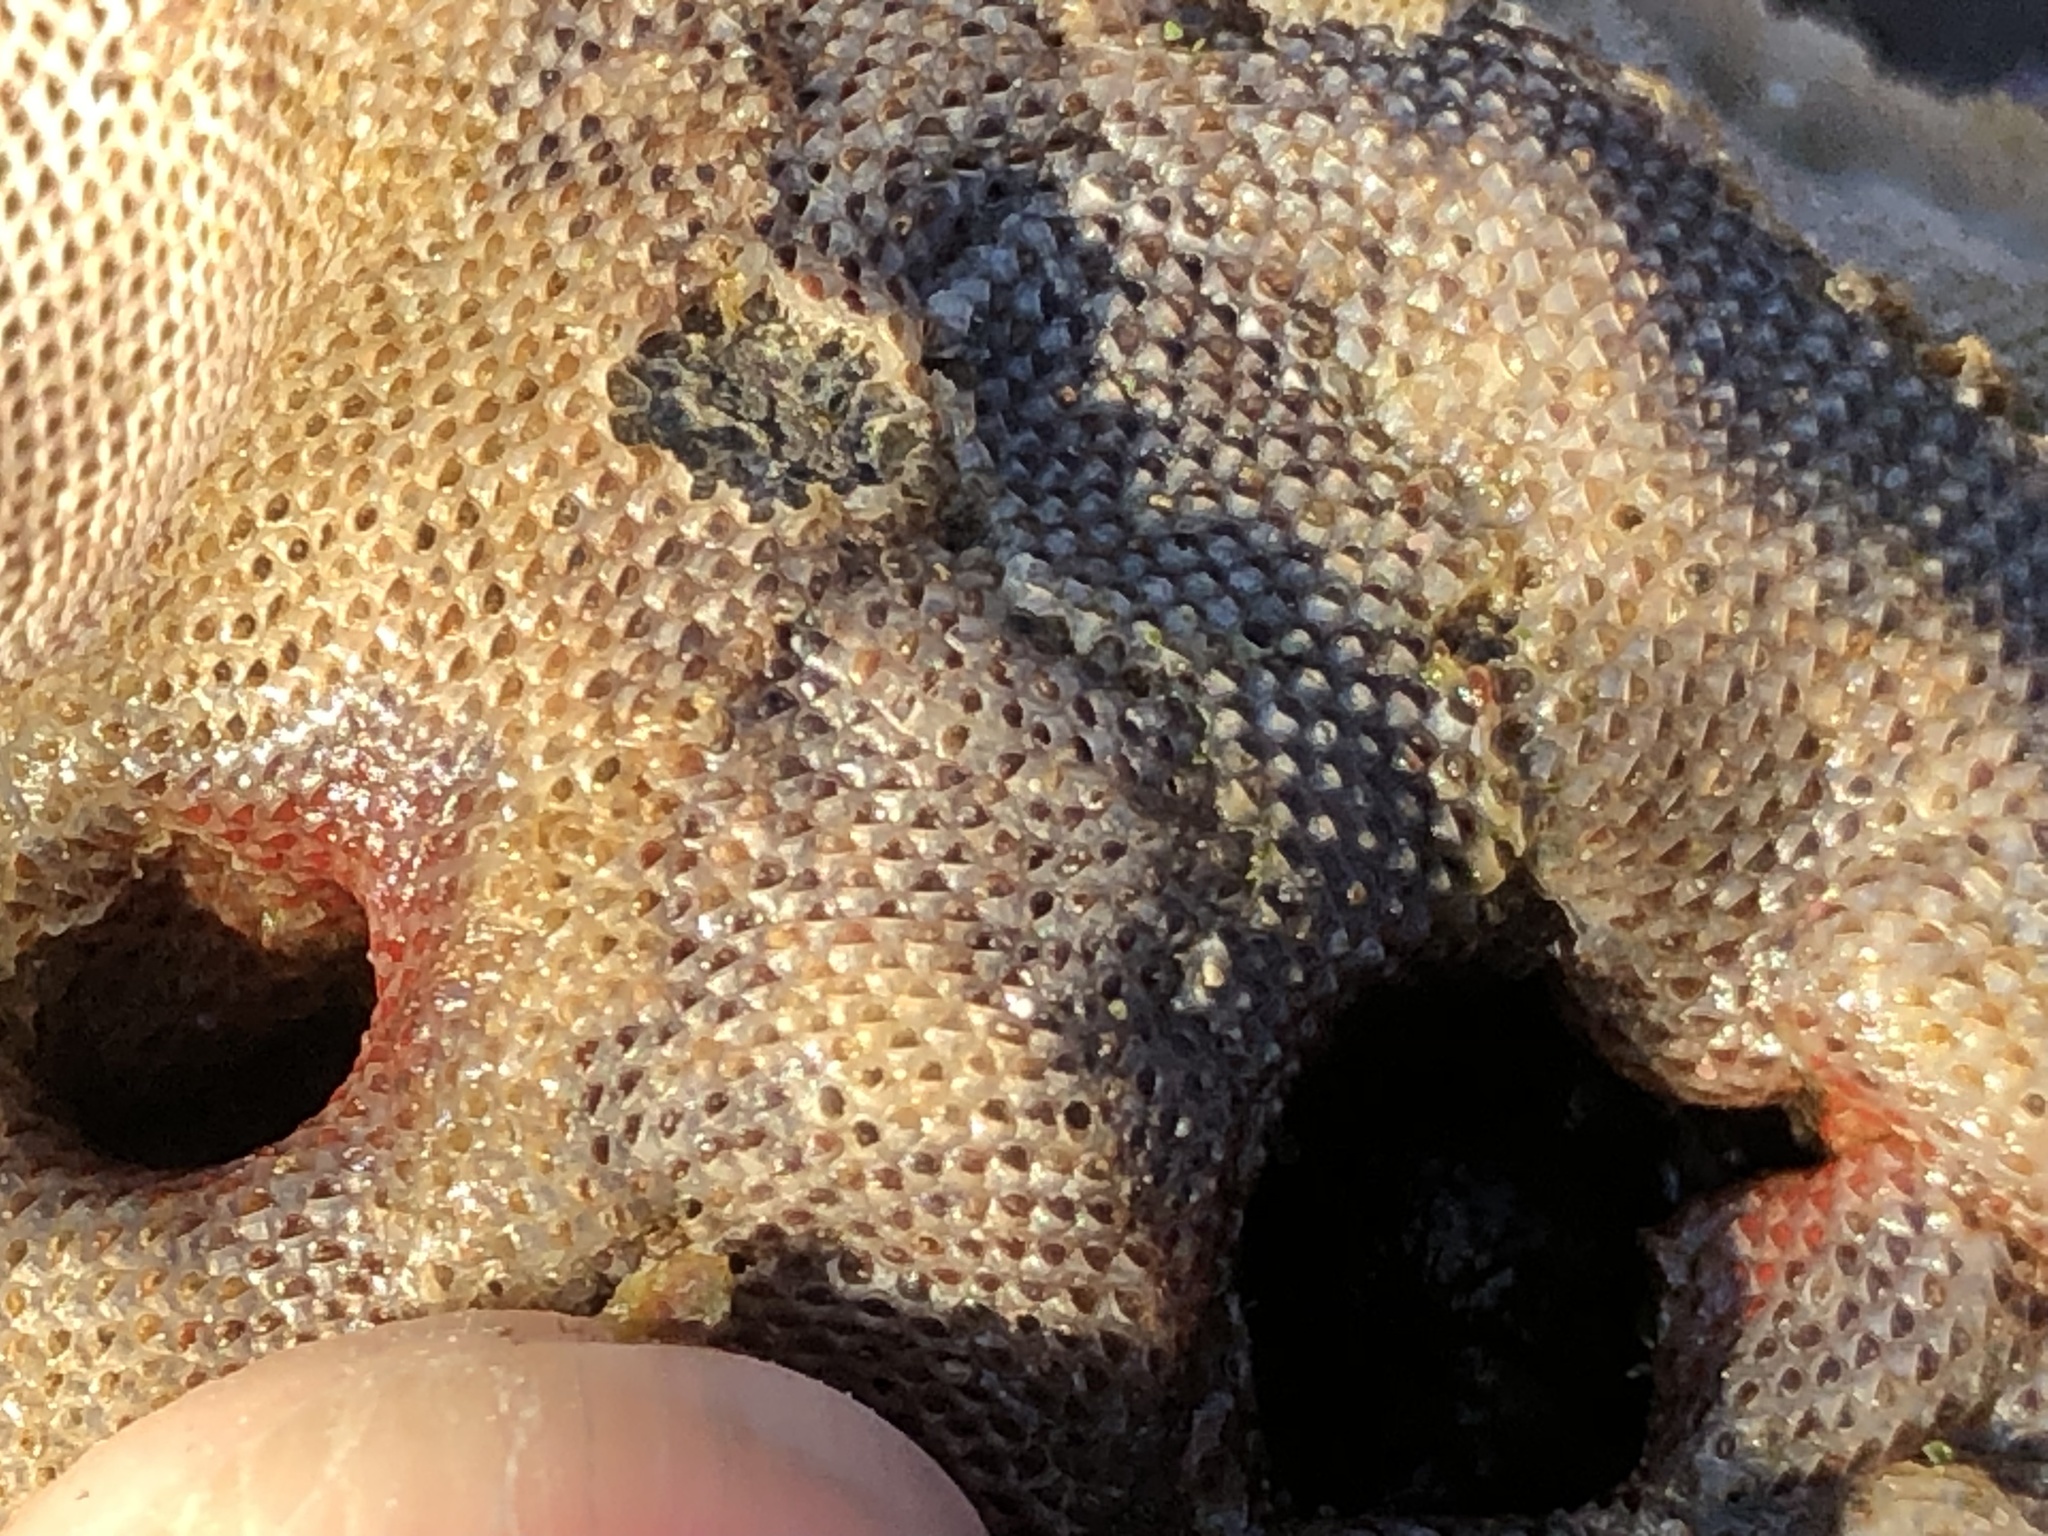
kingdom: Animalia
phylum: Bryozoa
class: Gymnolaemata
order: Cheilostomatida
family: Eurystomellidae
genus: Integripelta
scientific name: Integripelta bilabiata
